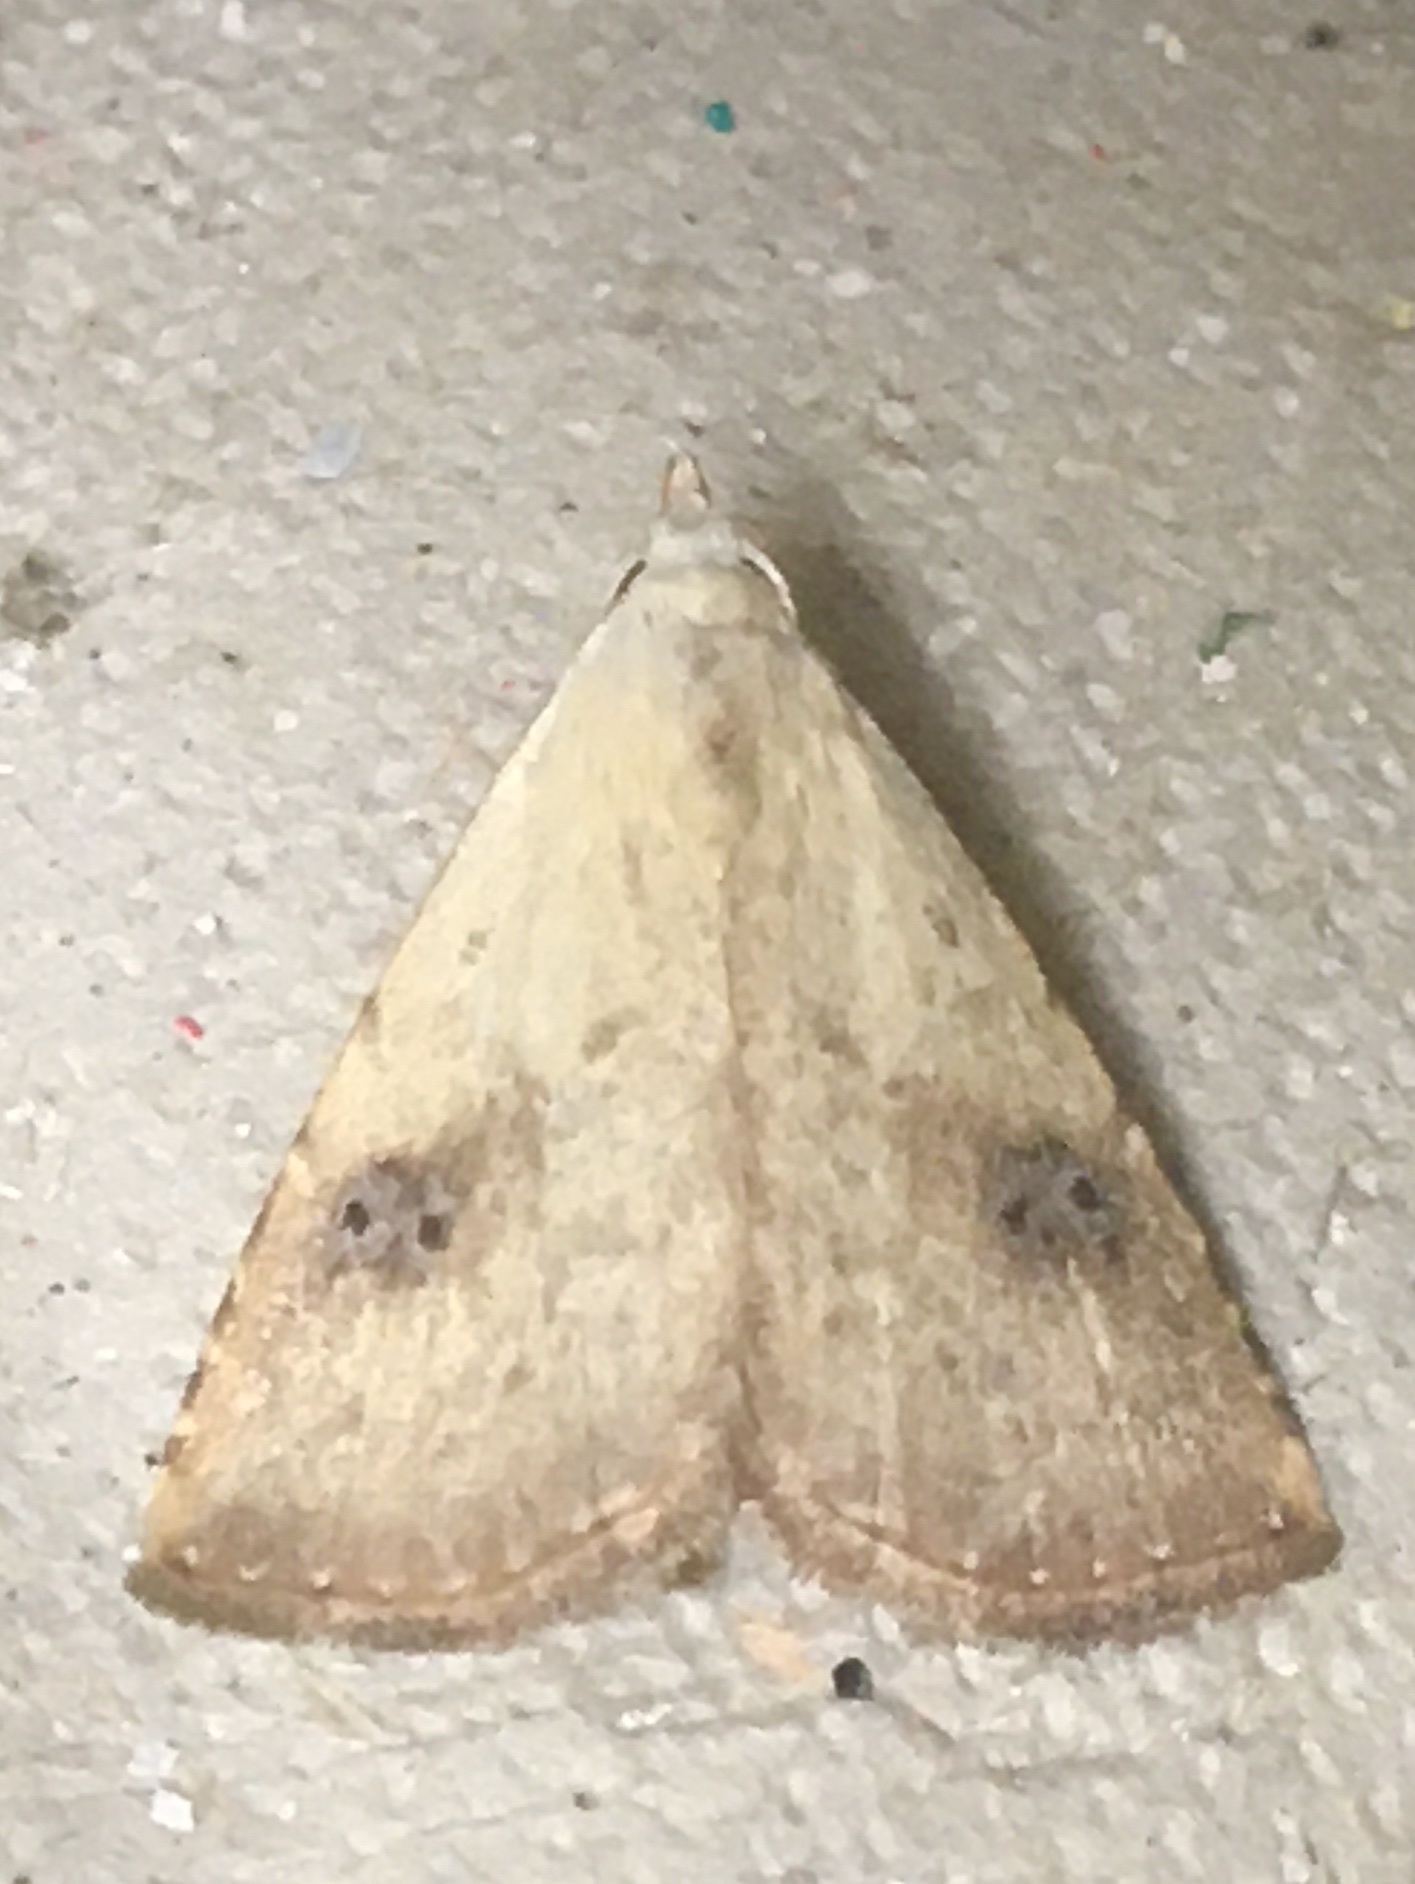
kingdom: Animalia
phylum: Arthropoda
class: Insecta
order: Lepidoptera
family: Erebidae
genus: Rivula
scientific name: Rivula sericealis
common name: Straw dot
